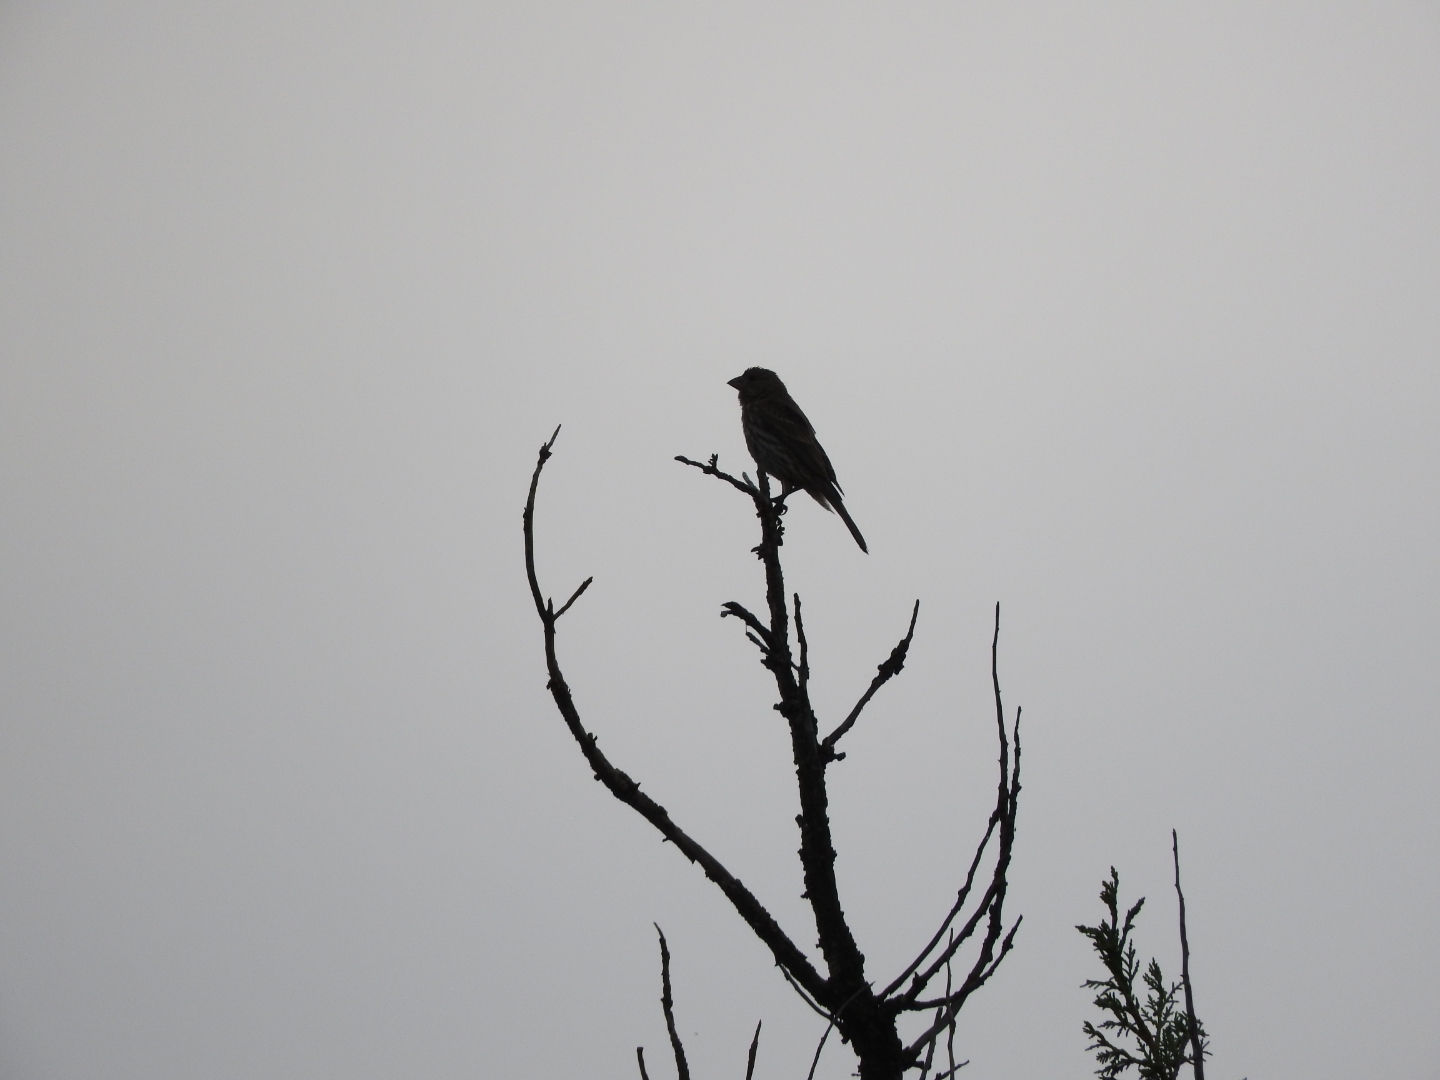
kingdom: Animalia
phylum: Chordata
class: Aves
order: Passeriformes
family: Fringillidae
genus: Haemorhous
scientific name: Haemorhous mexicanus
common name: House finch
